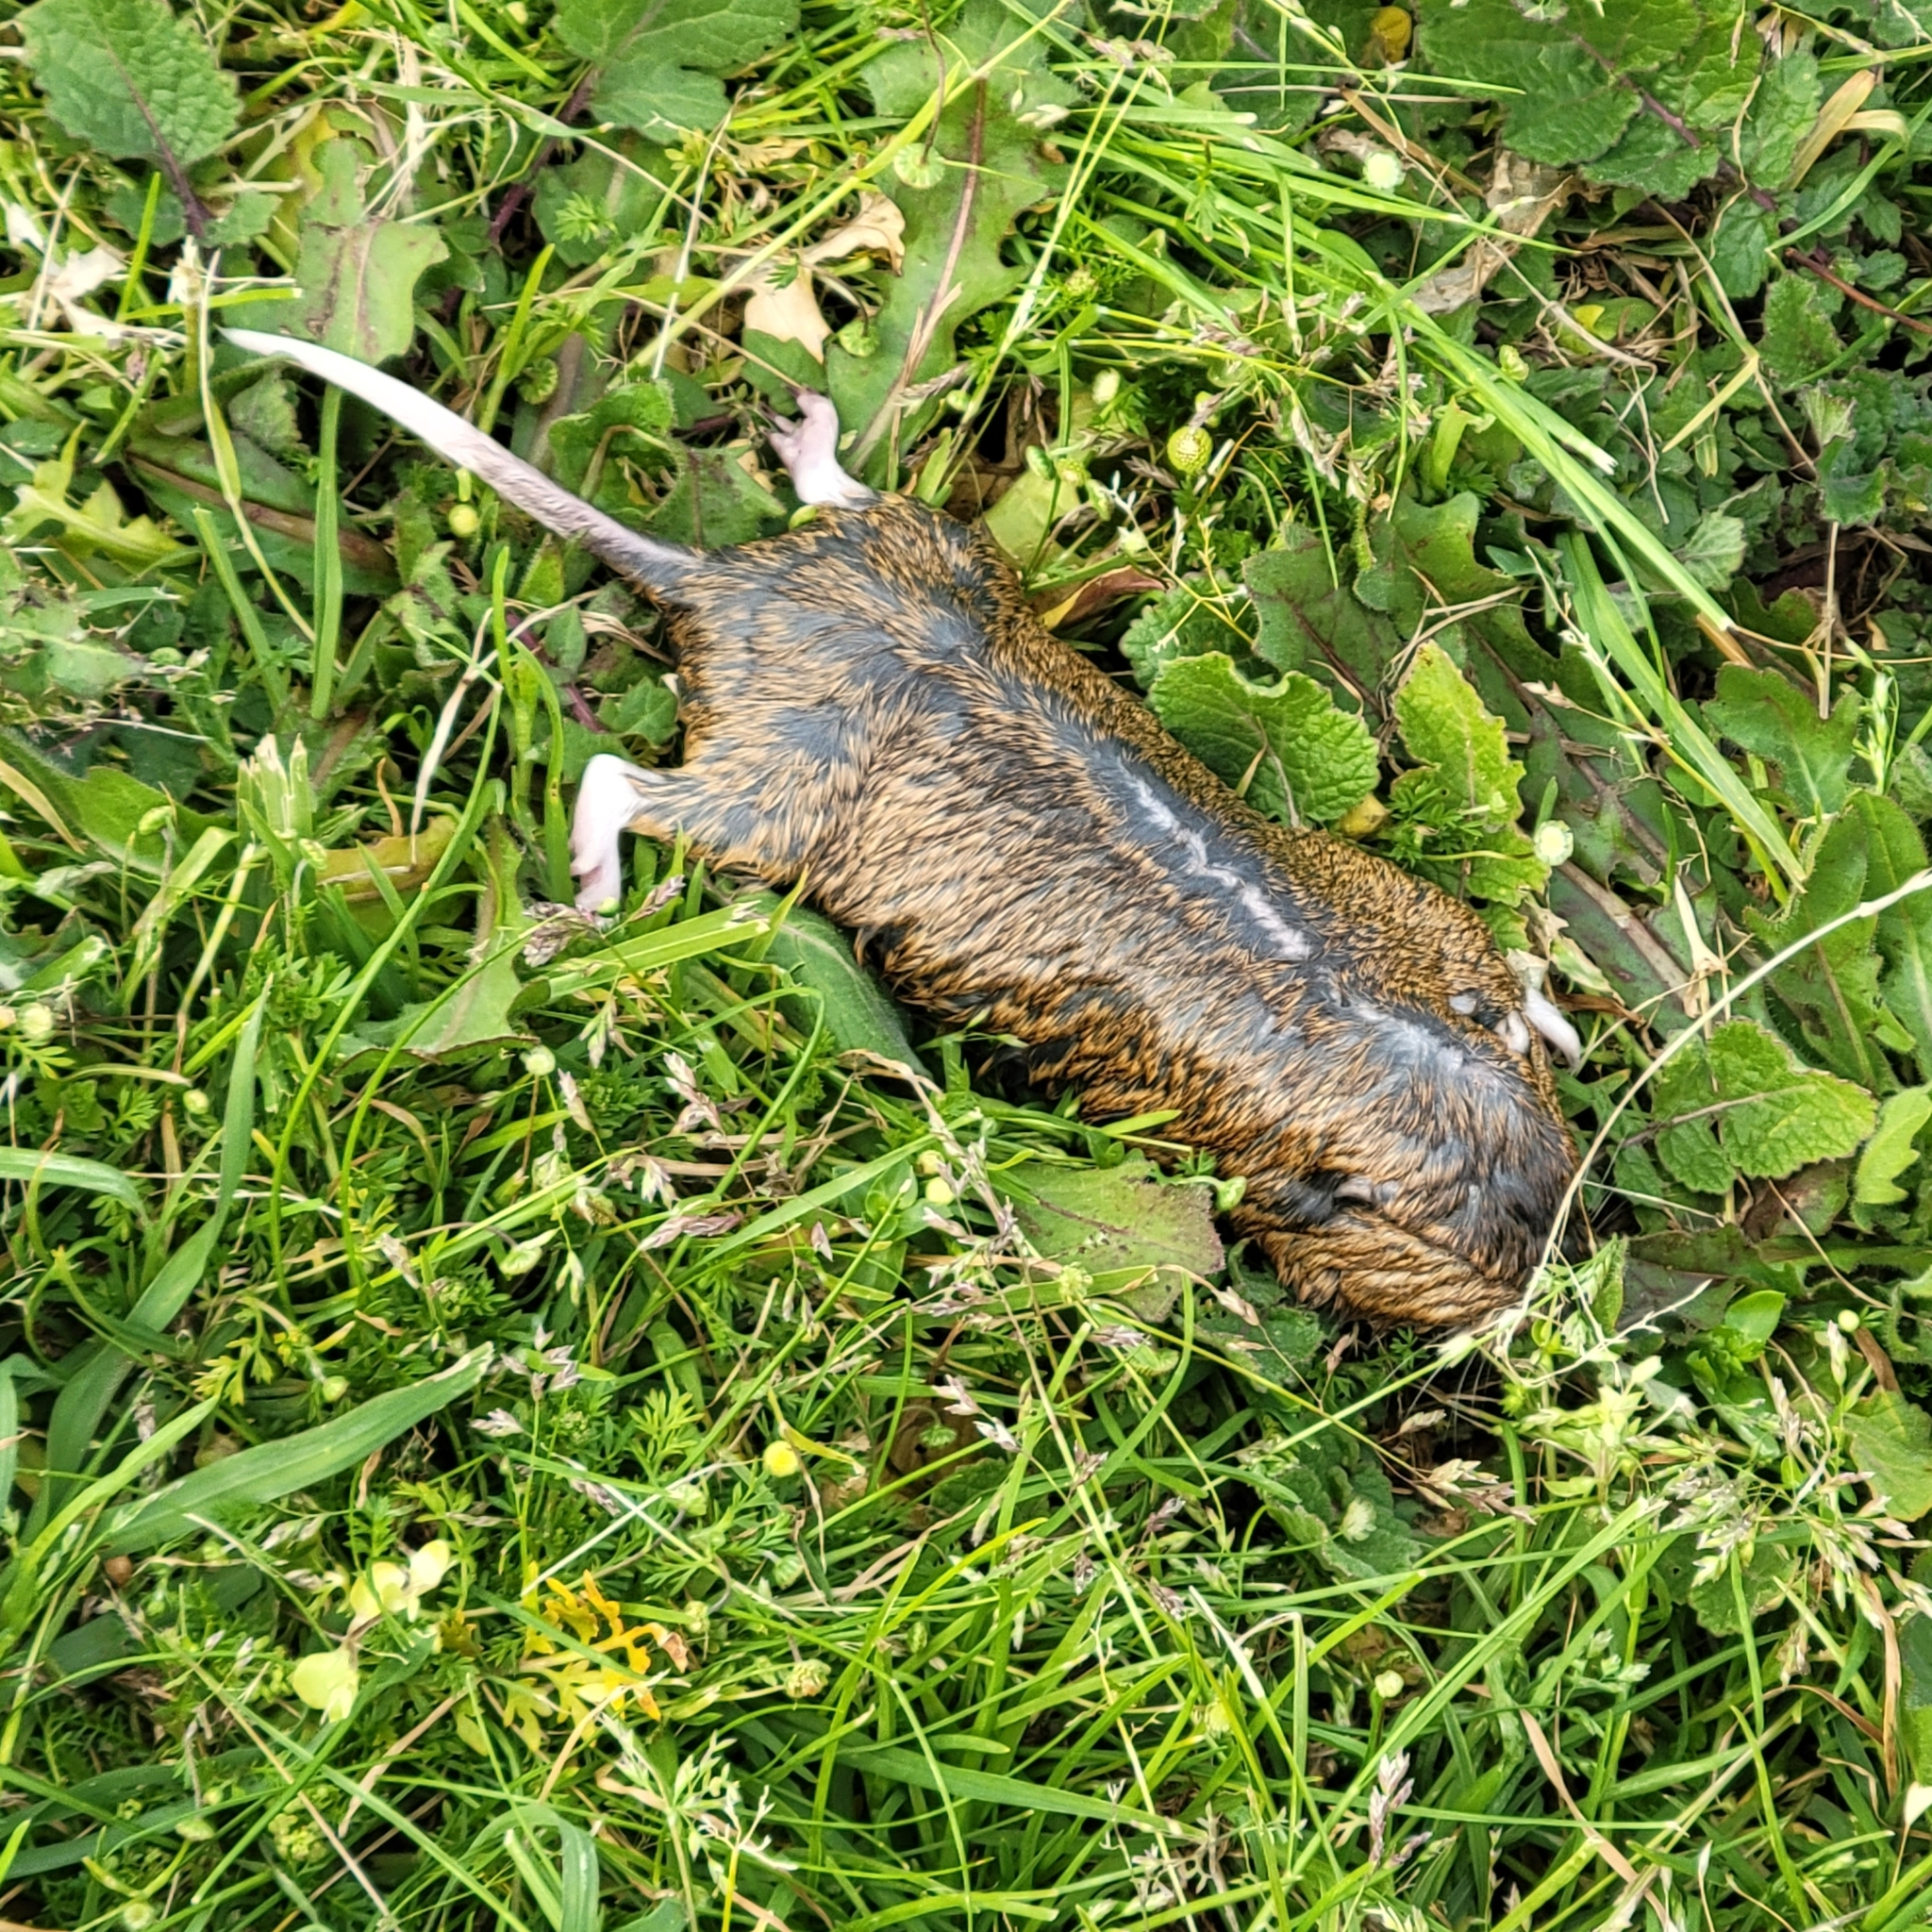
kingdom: Animalia
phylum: Chordata
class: Mammalia
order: Rodentia
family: Geomyidae
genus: Thomomys
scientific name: Thomomys bottae
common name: Botta's pocket gopher
